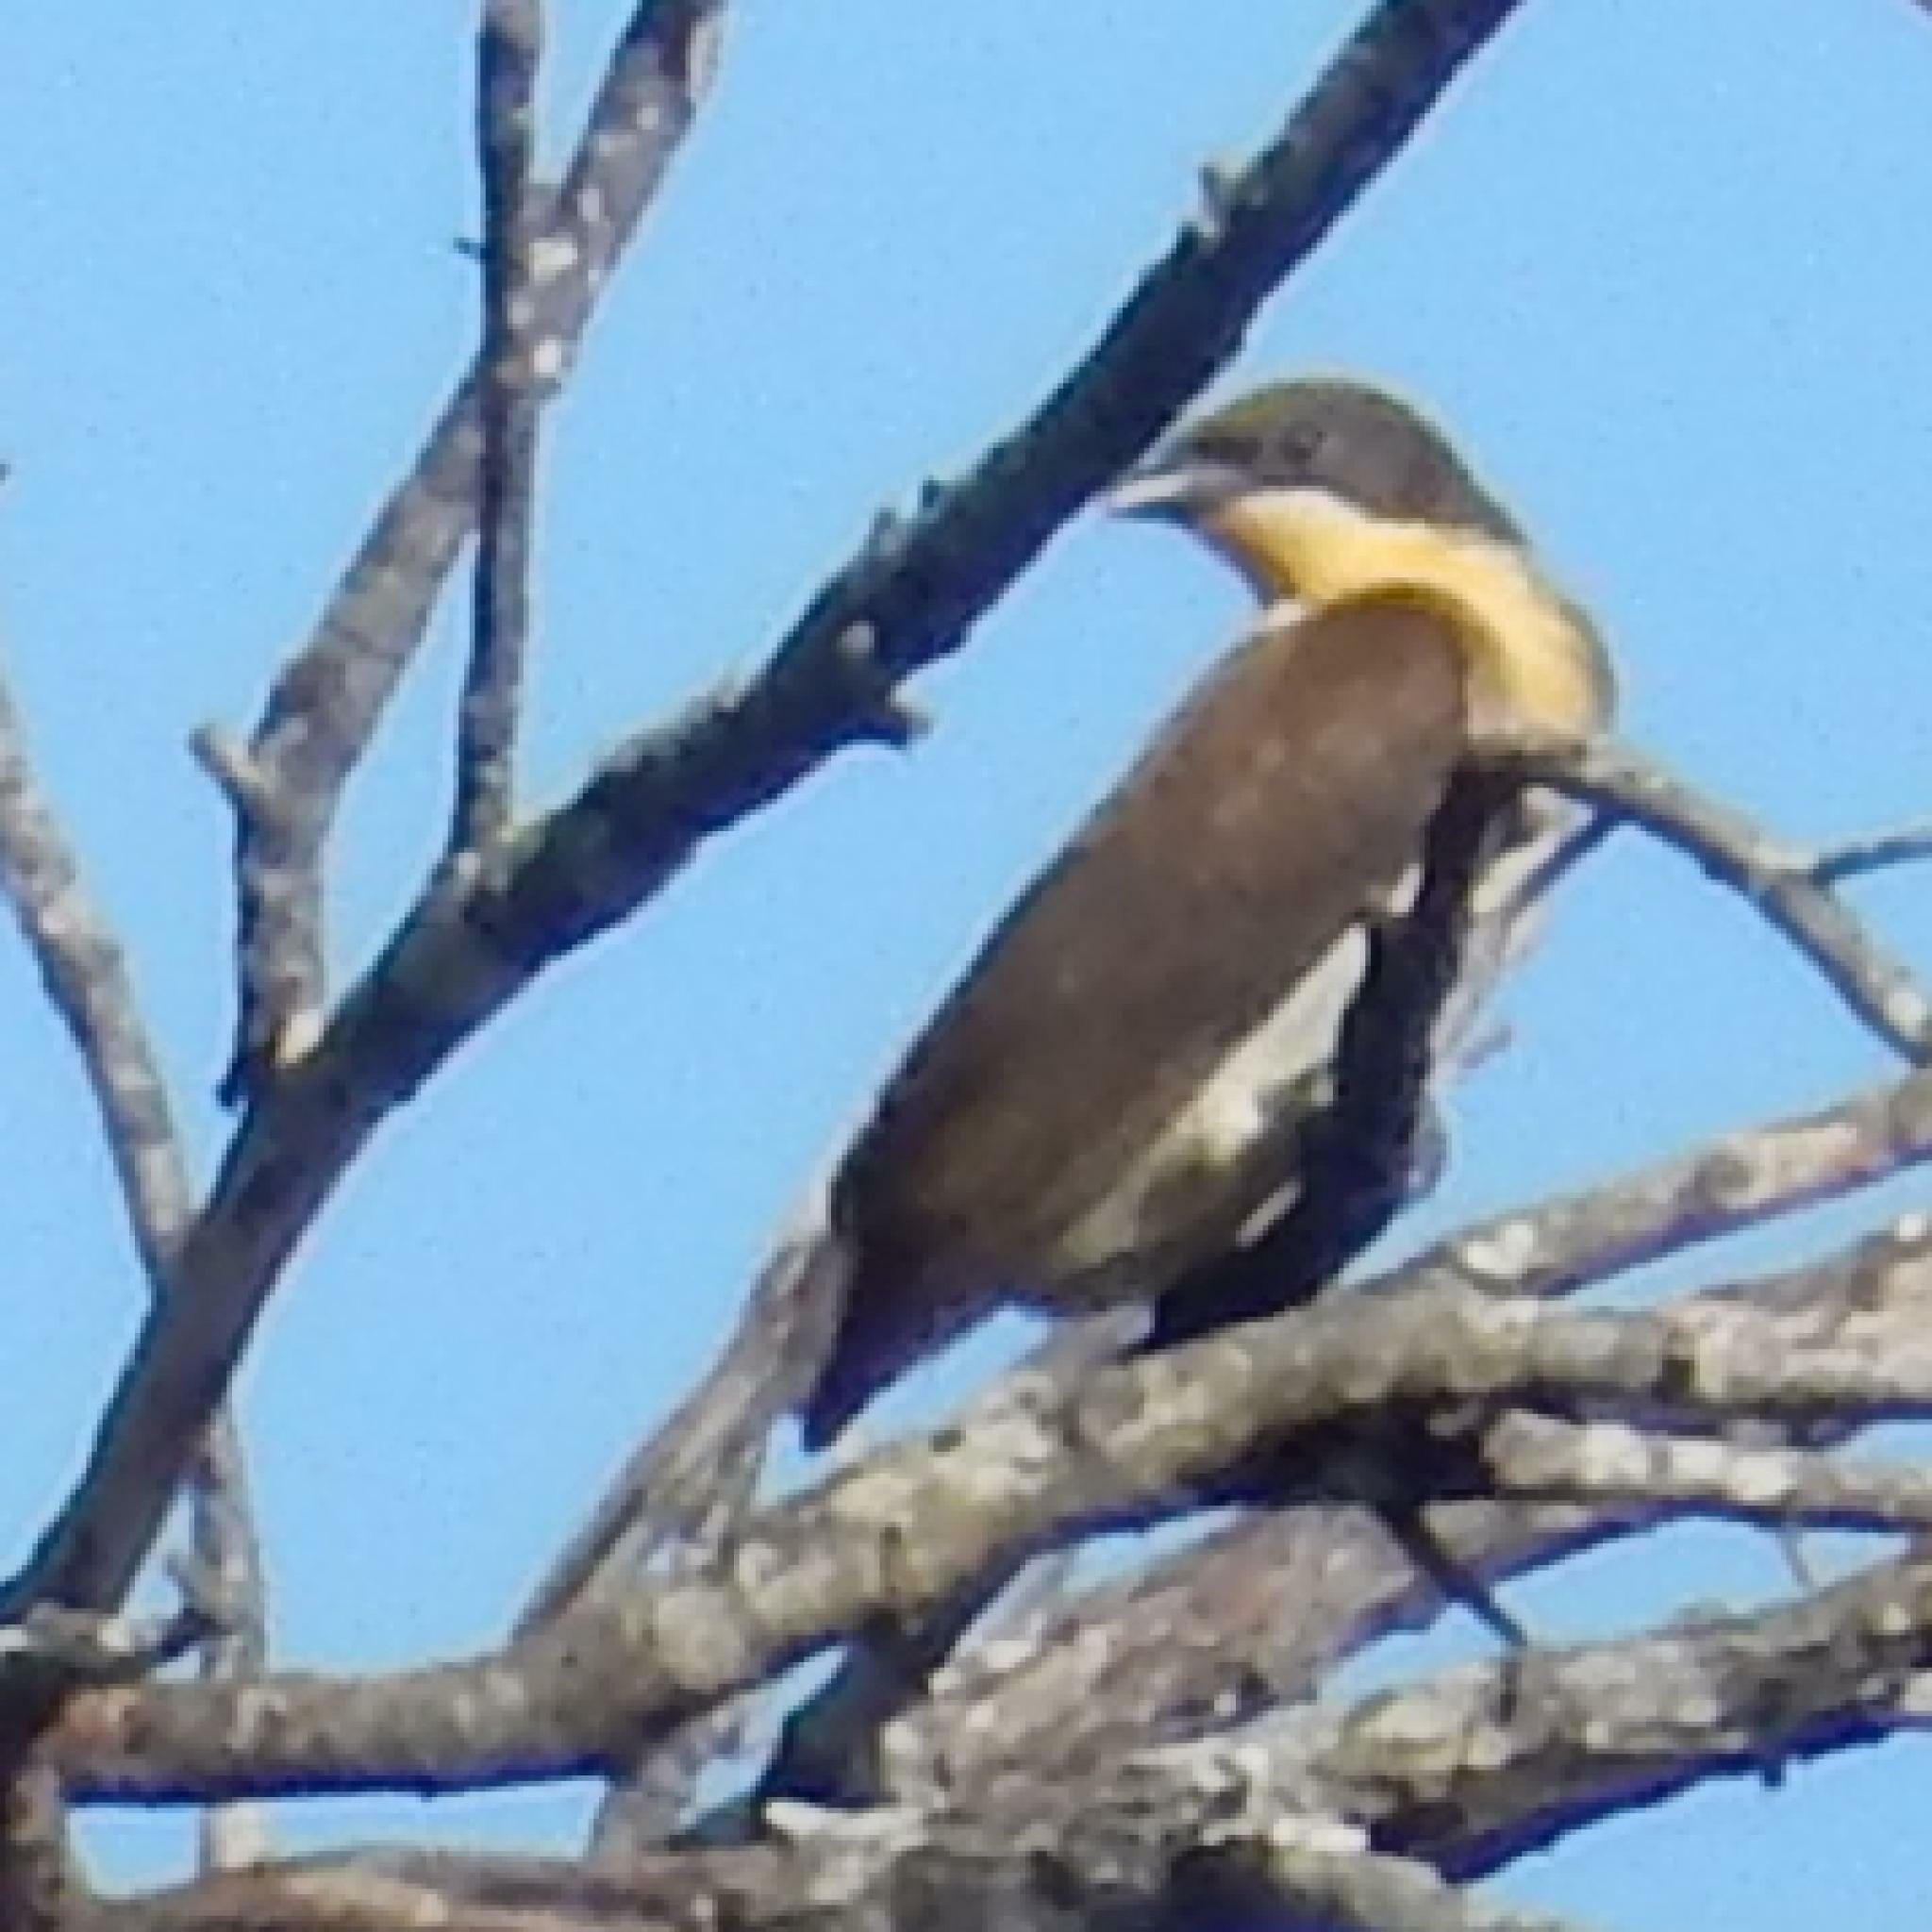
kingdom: Animalia
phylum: Chordata
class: Aves
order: Piciformes
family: Indicatoridae
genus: Indicator
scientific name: Indicator indicator
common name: Greater honeyguide
